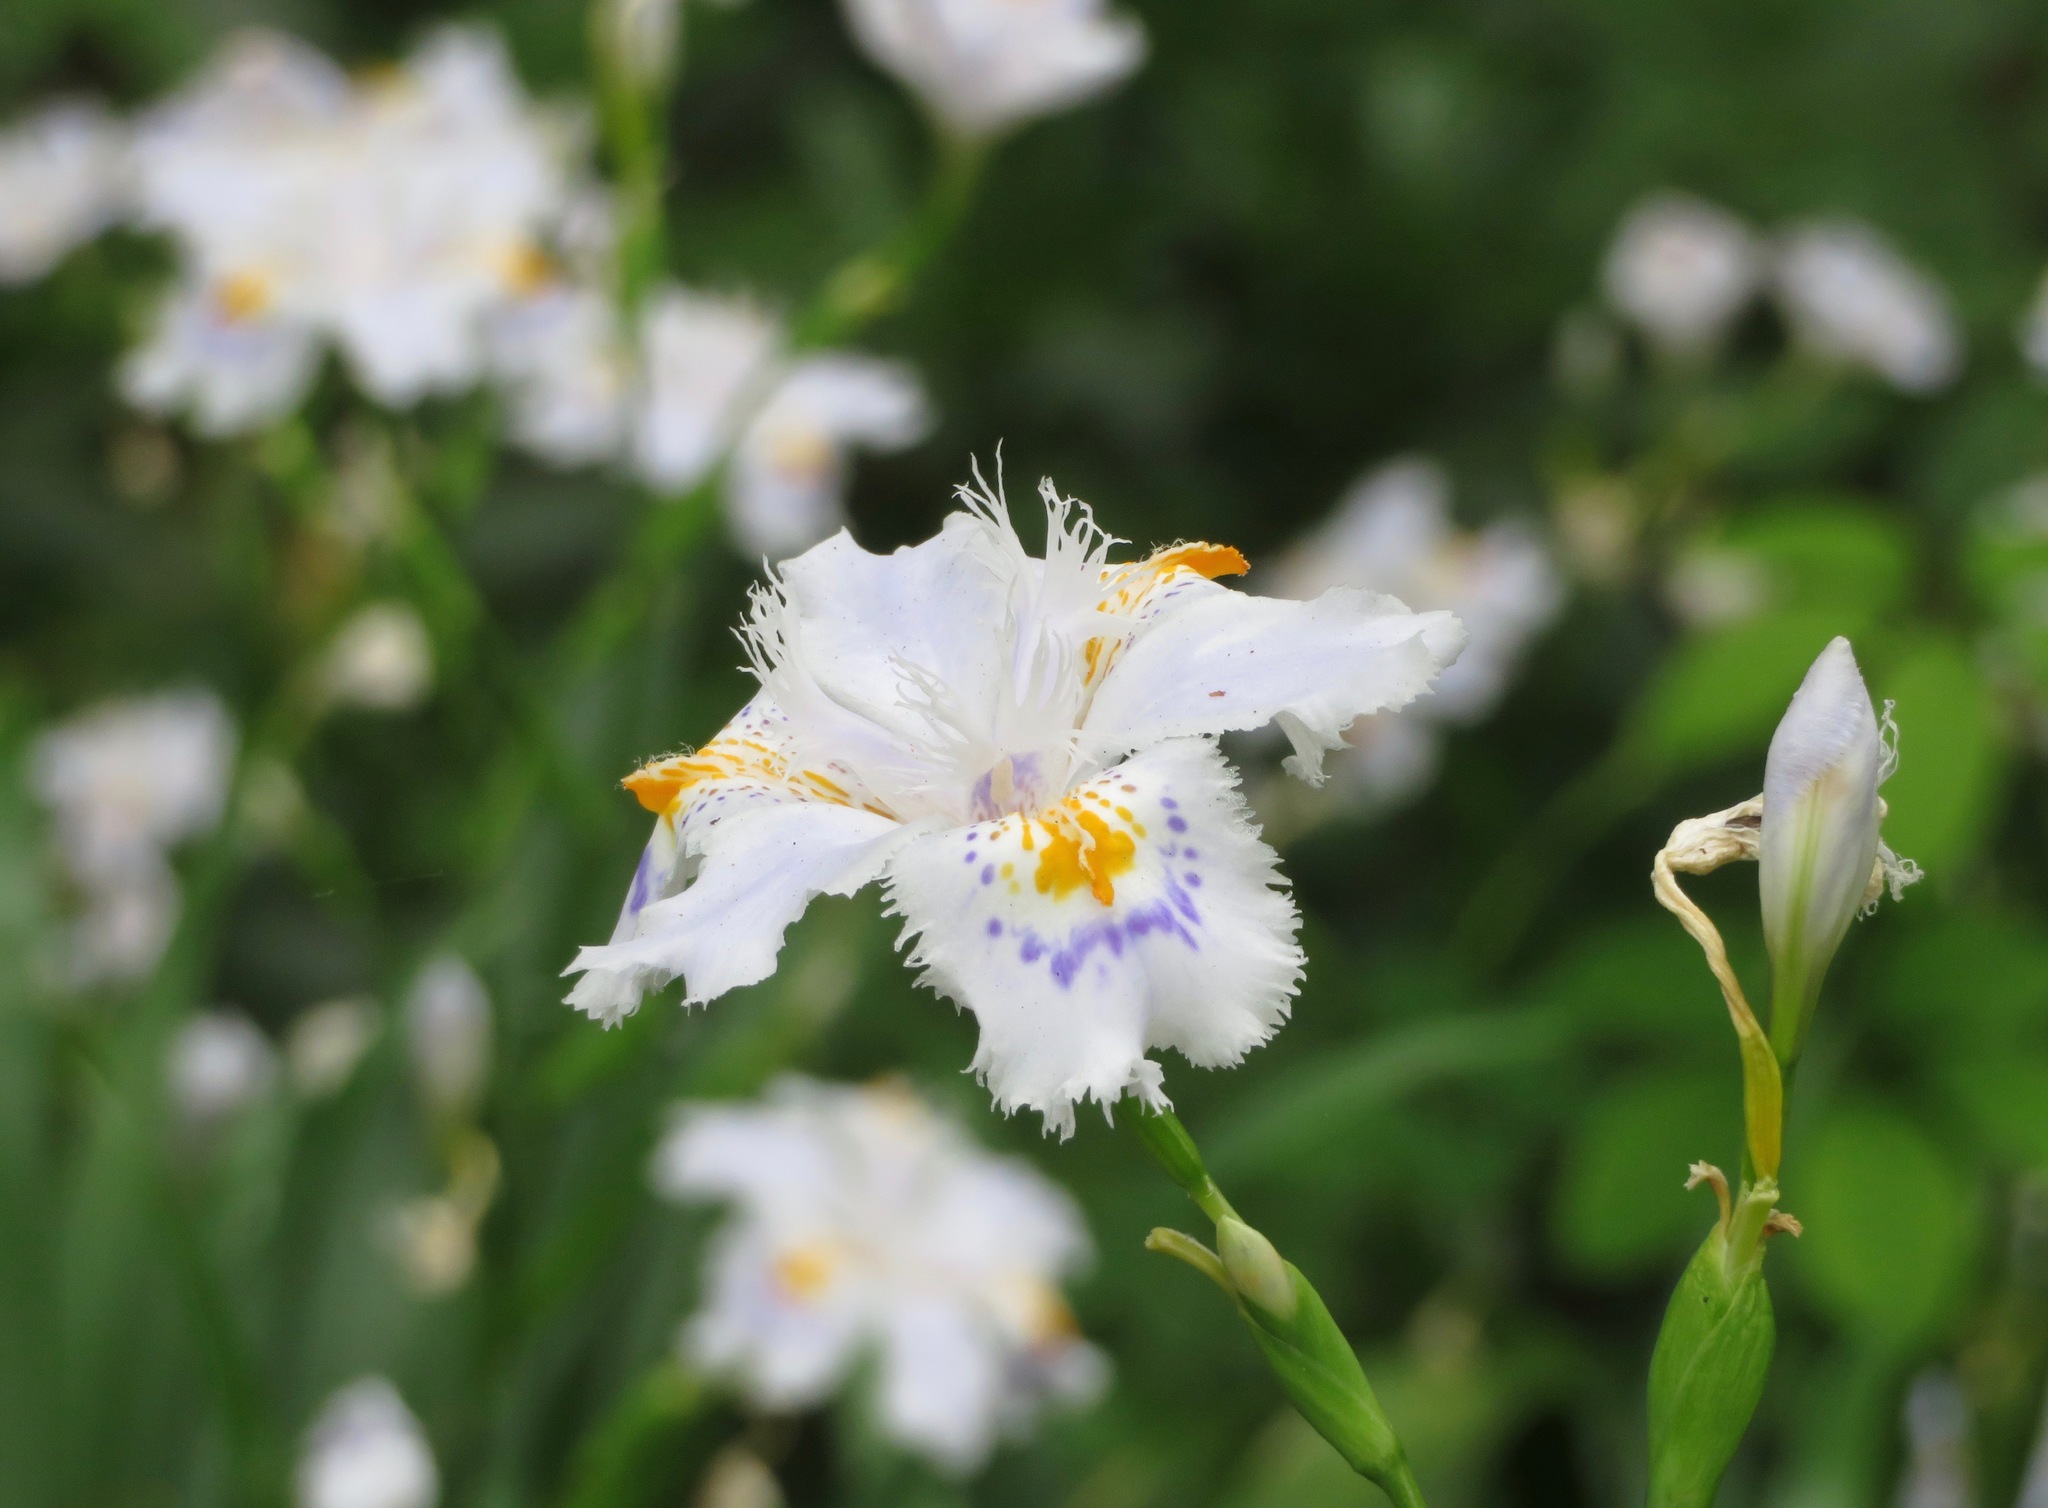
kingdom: Plantae
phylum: Tracheophyta
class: Liliopsida
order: Asparagales
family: Iridaceae
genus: Iris
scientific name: Iris japonica
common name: Butterfly-flower
